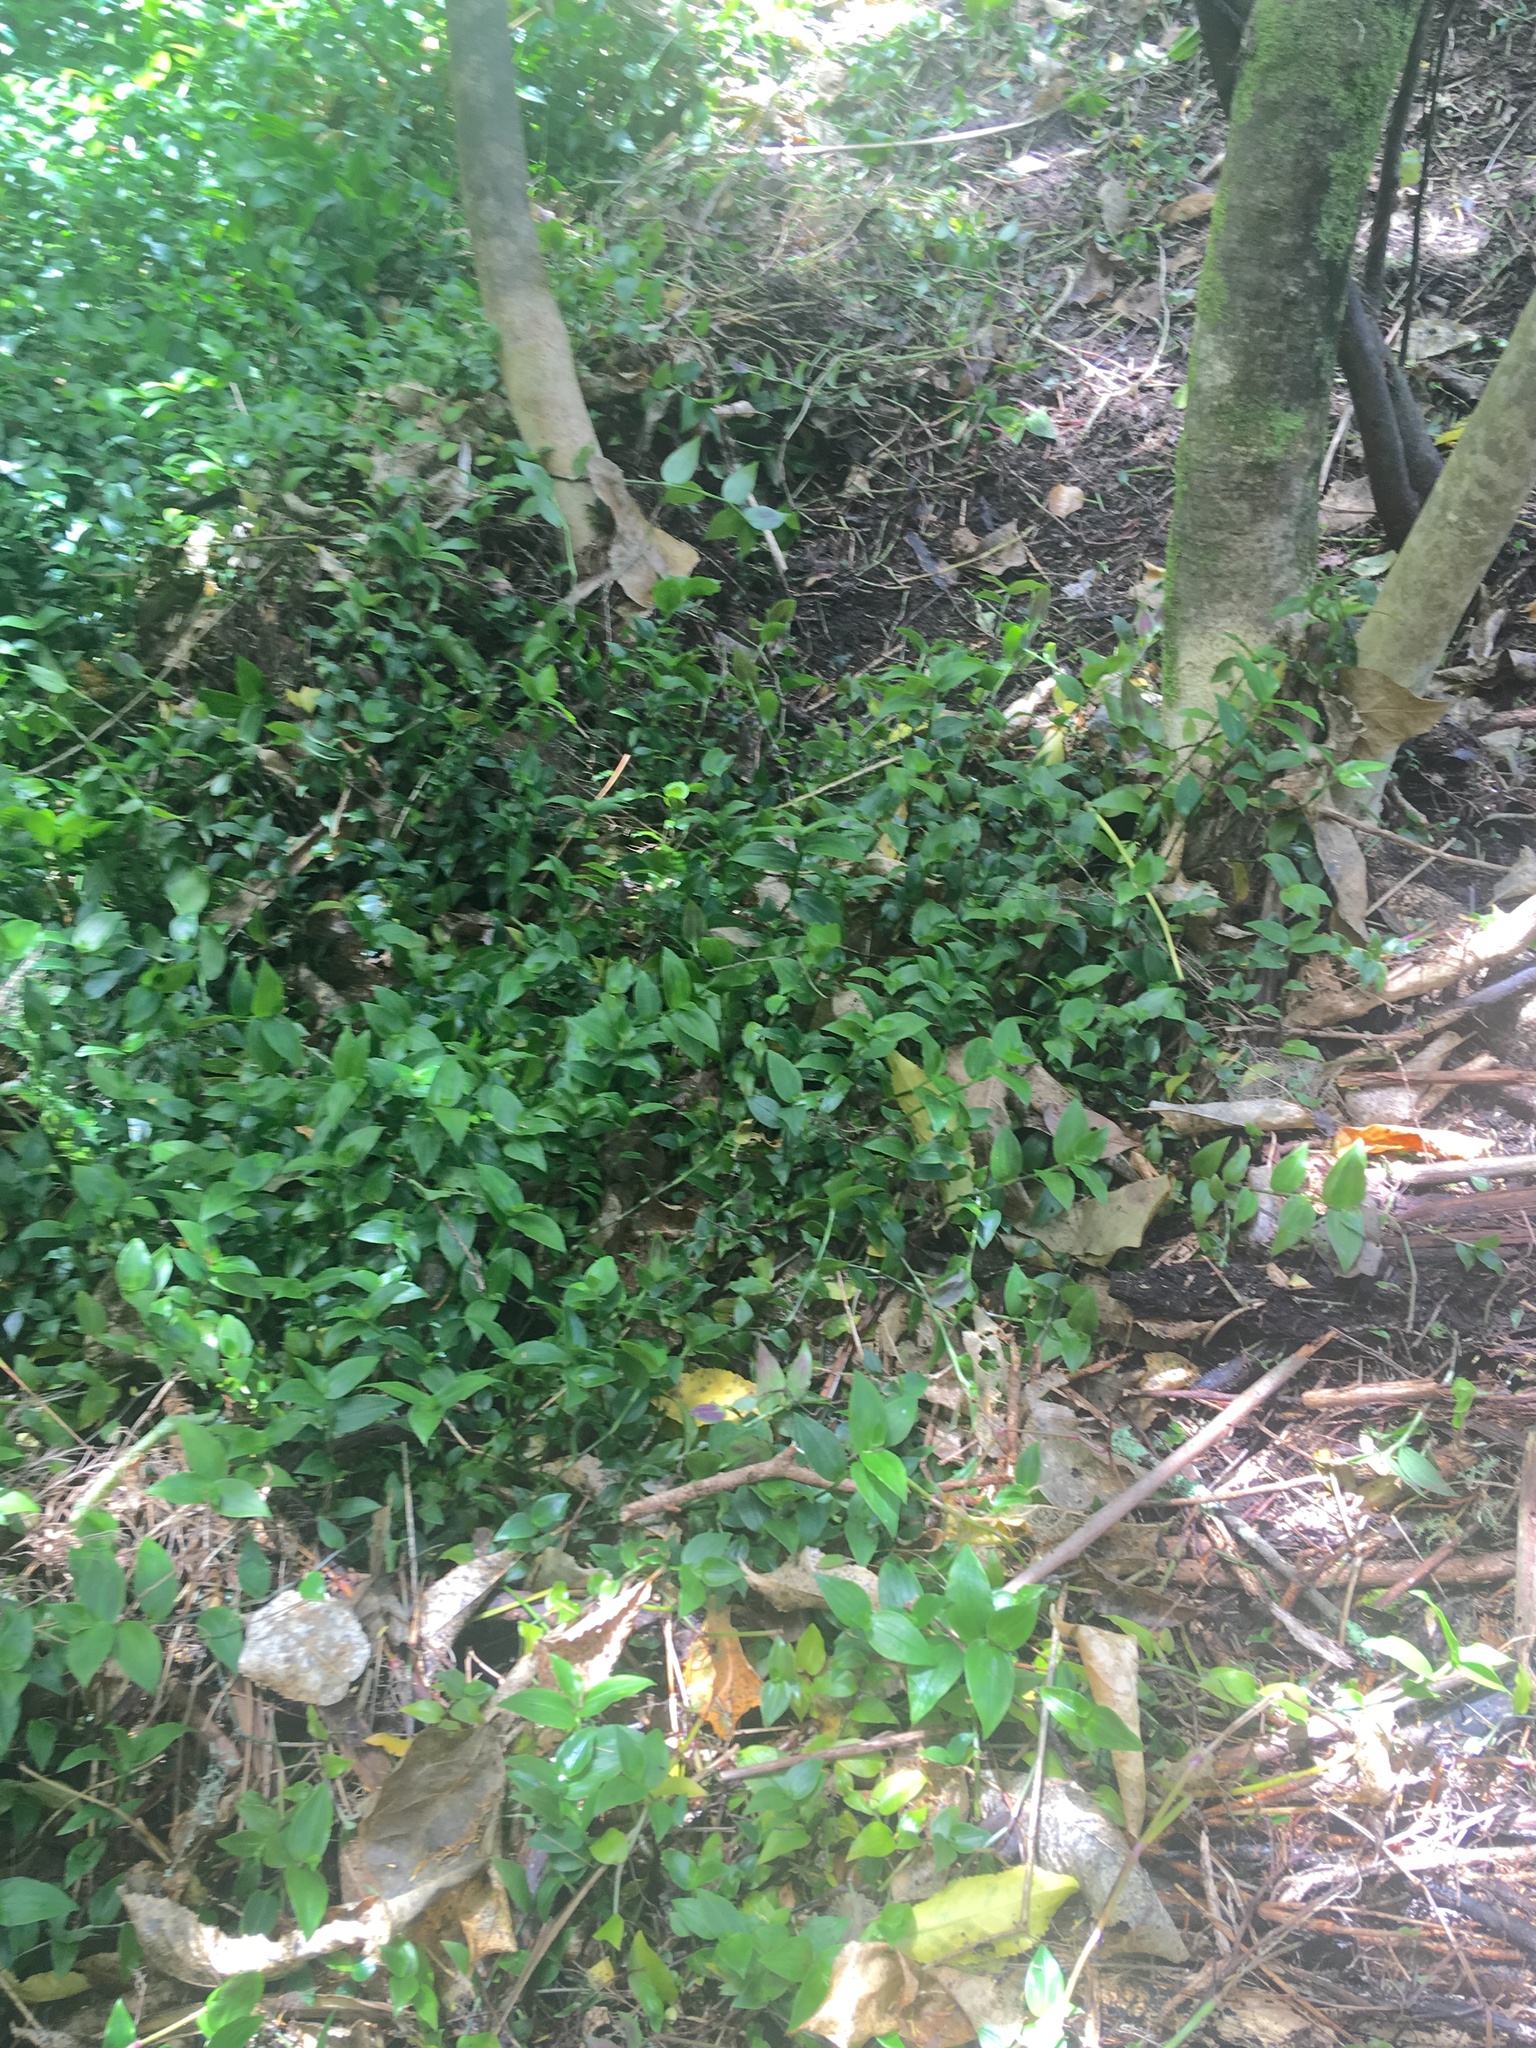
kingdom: Plantae
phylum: Tracheophyta
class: Liliopsida
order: Commelinales
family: Commelinaceae
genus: Tradescantia
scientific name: Tradescantia fluminensis
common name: Wandering-jew
